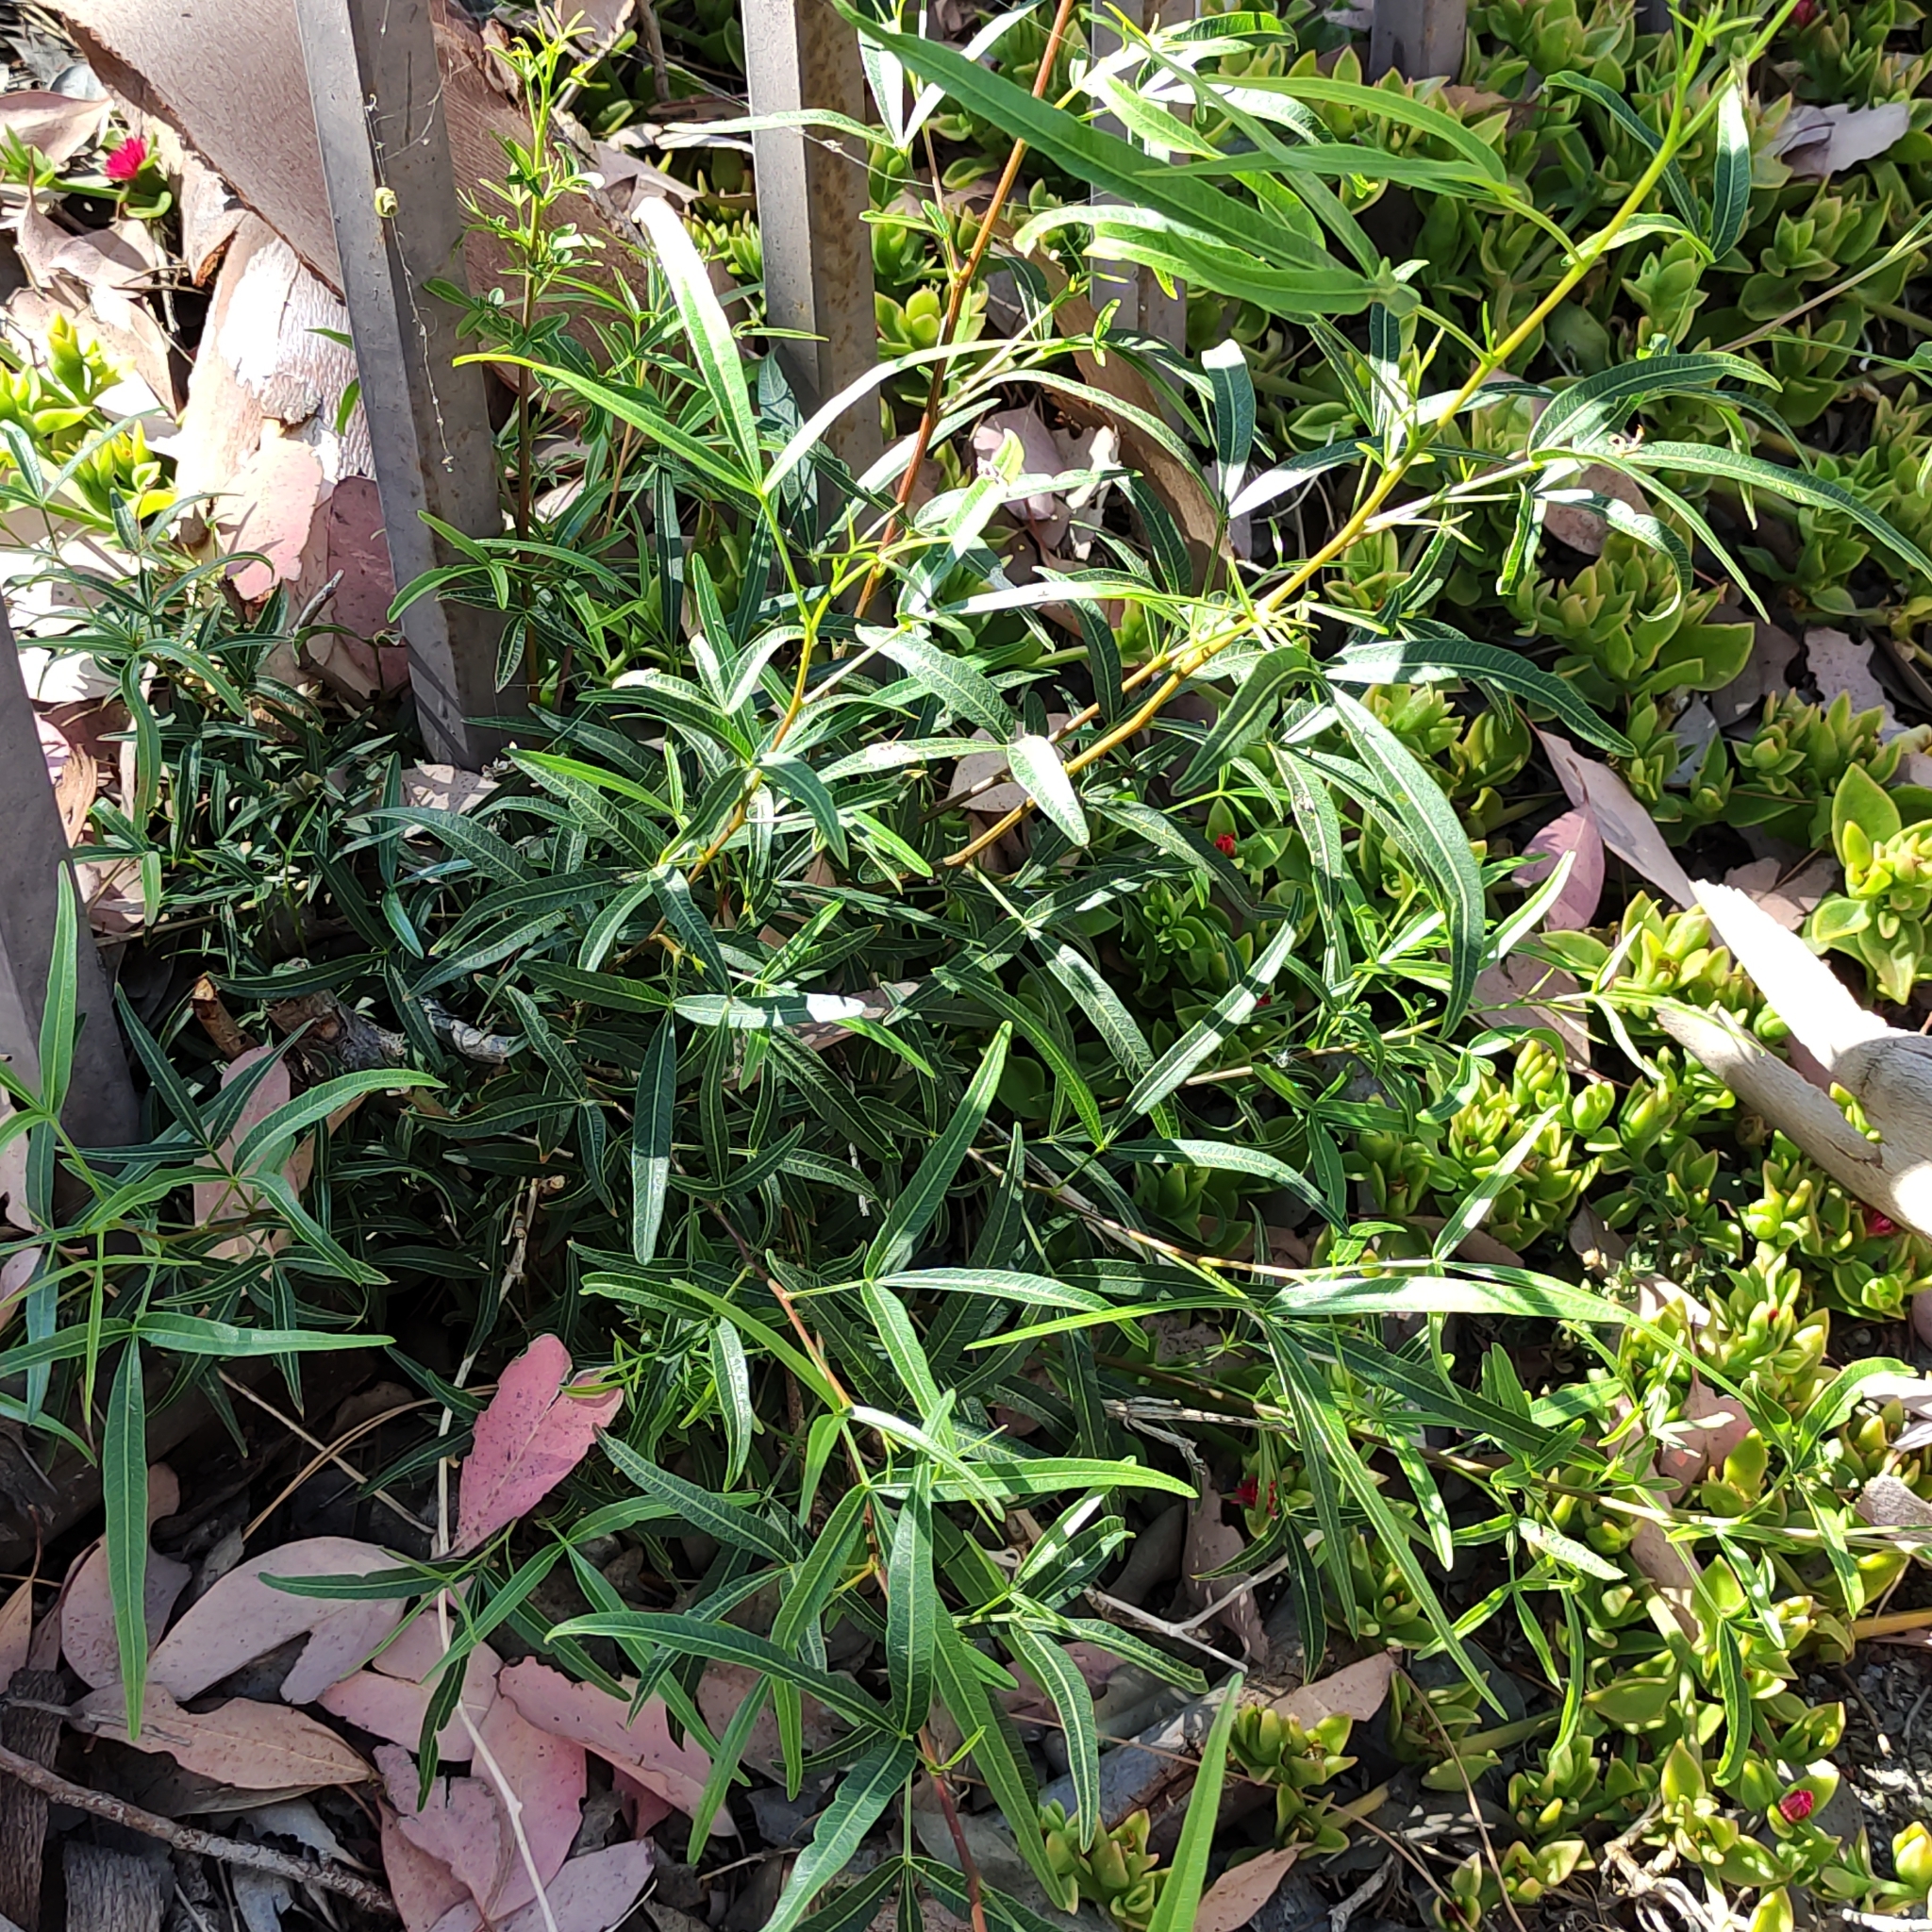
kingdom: Plantae
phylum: Tracheophyta
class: Magnoliopsida
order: Sapindales
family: Anacardiaceae
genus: Searsia
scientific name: Searsia lancea
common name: Cashew
